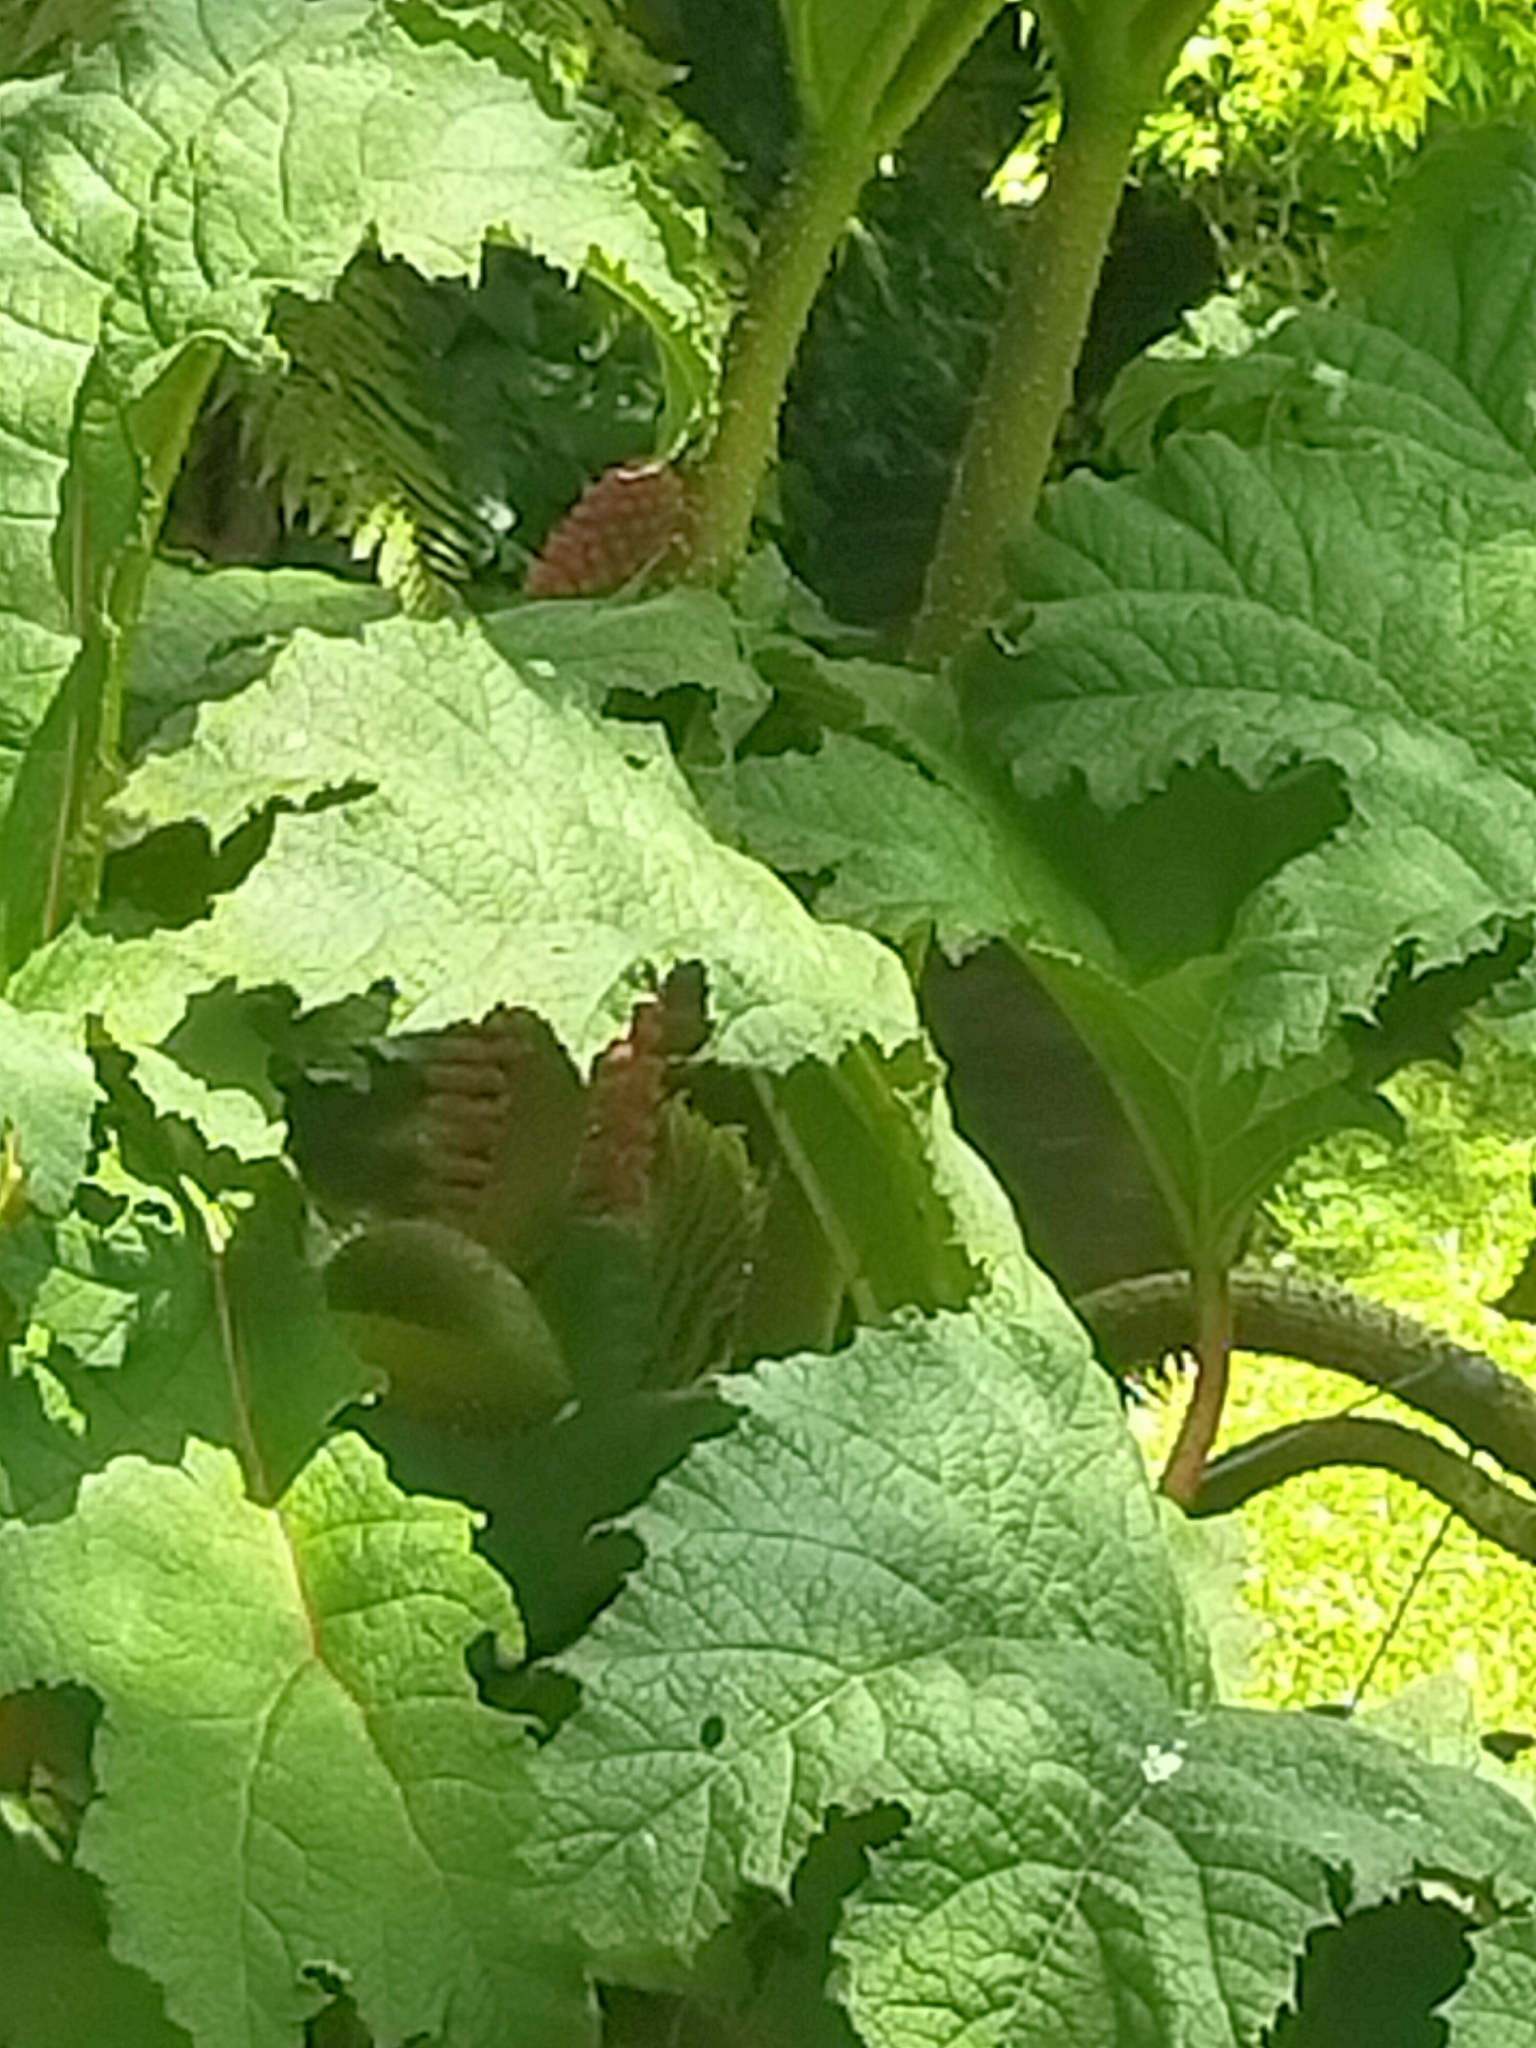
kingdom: Plantae
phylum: Tracheophyta
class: Magnoliopsida
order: Gunnerales
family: Gunneraceae
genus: Gunnera
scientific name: Gunnera tinctoria
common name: Giant-rhubarb
